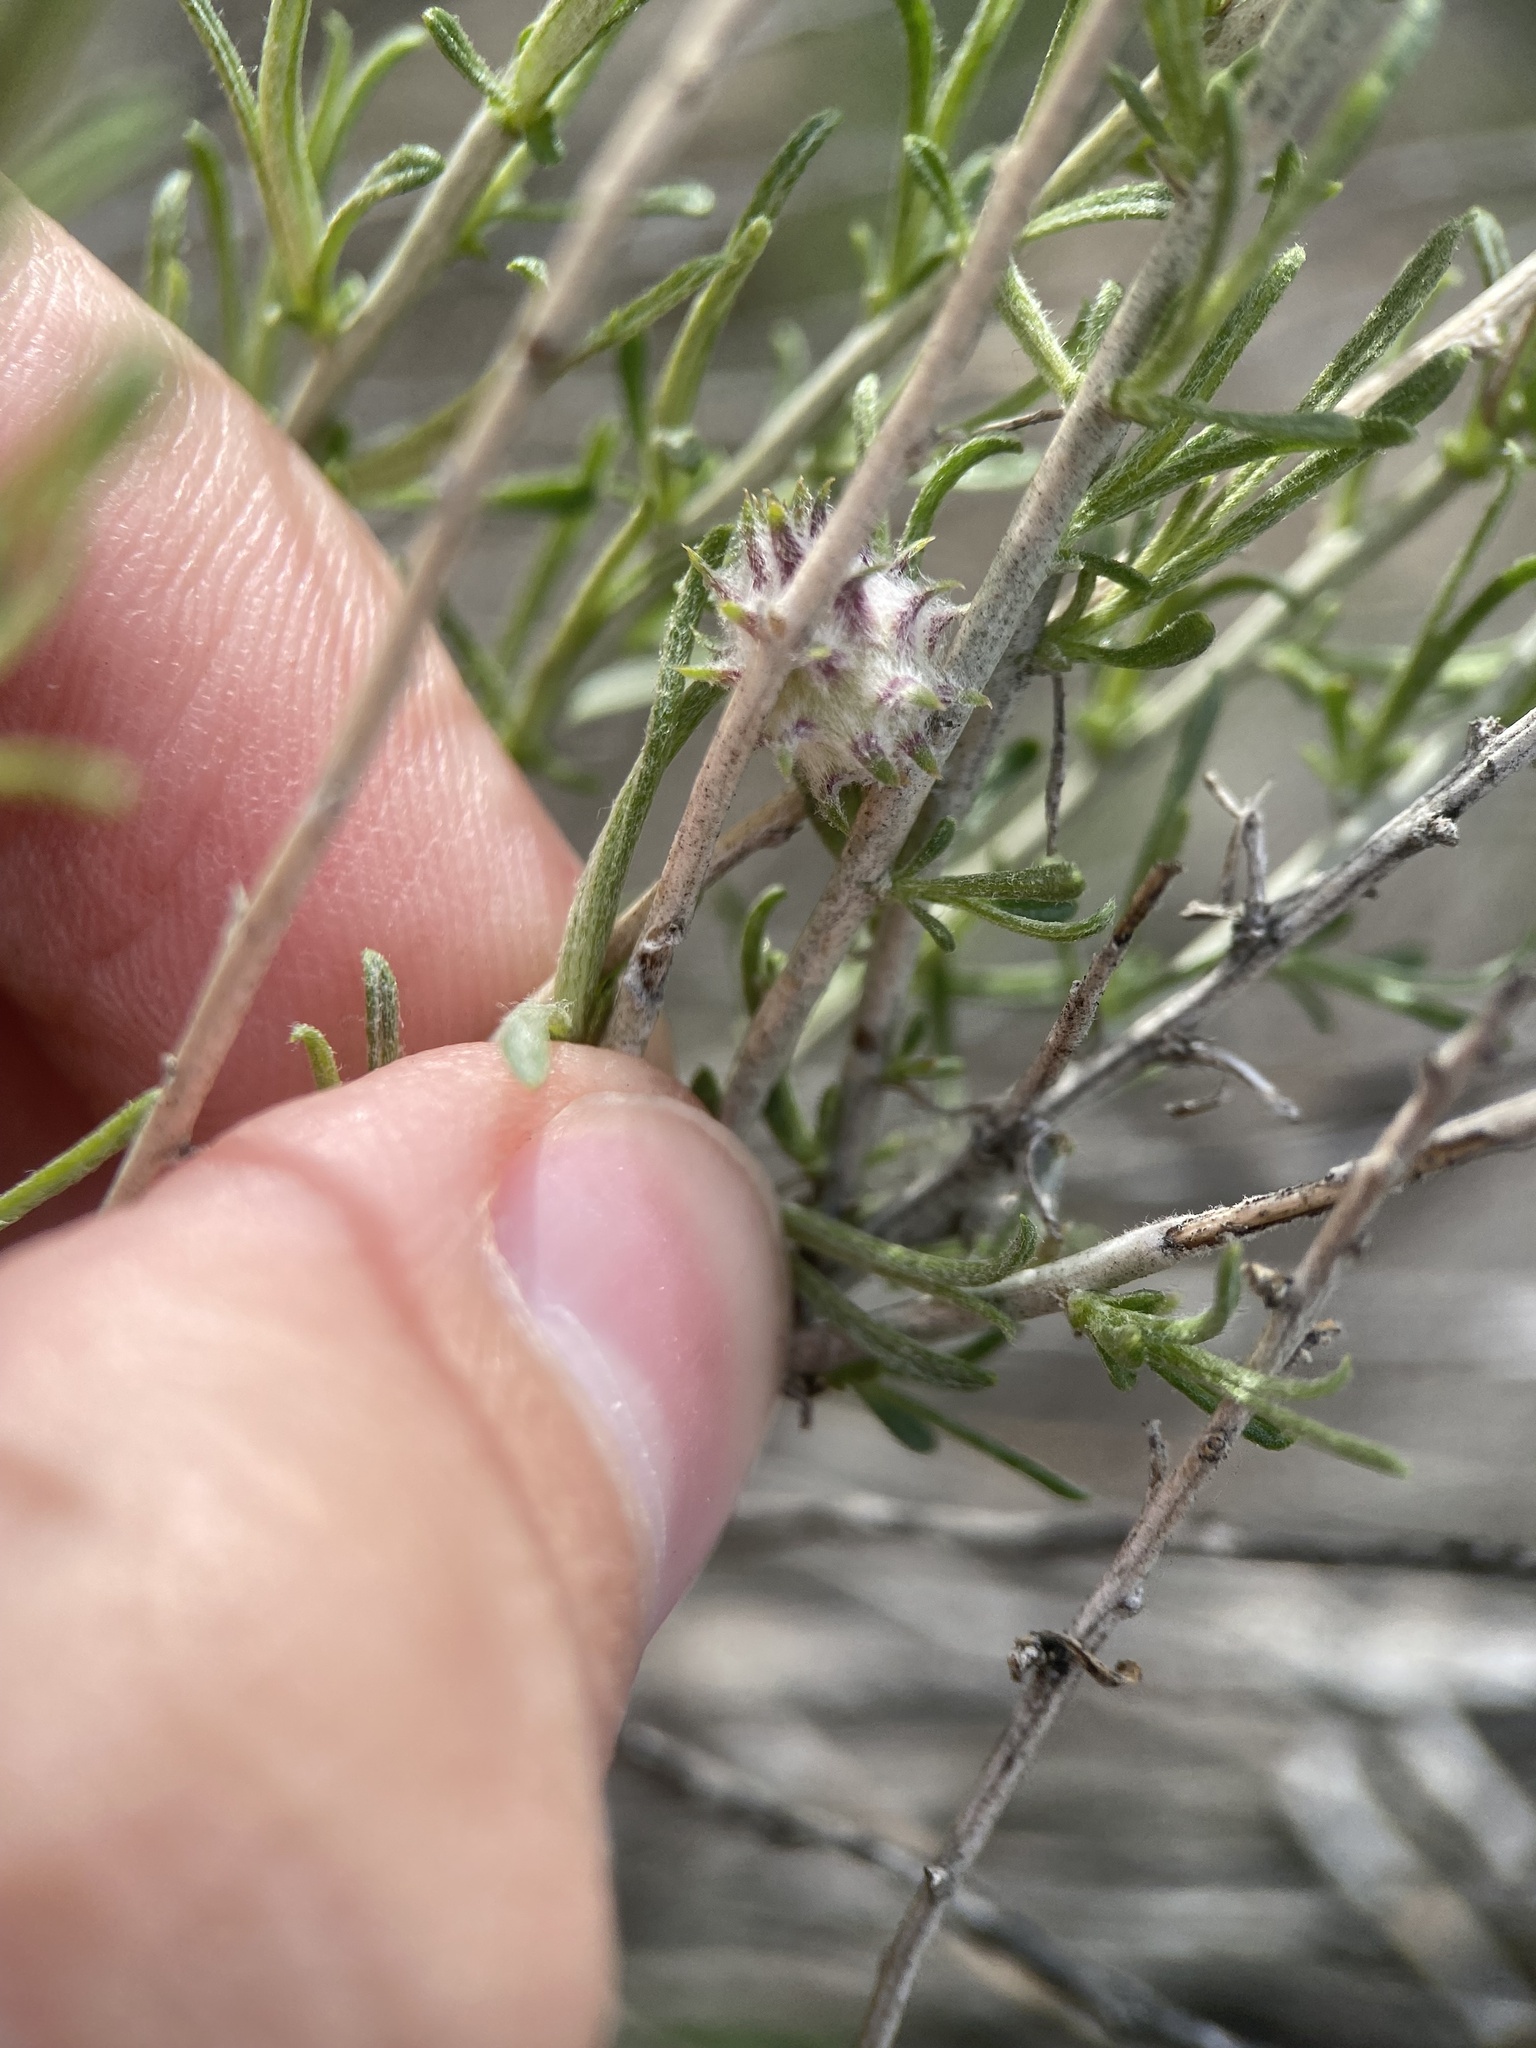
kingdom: Animalia
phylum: Arthropoda
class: Insecta
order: Diptera
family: Cecidomyiidae
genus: Rhopalomyia
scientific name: Rhopalomyia utahensis
